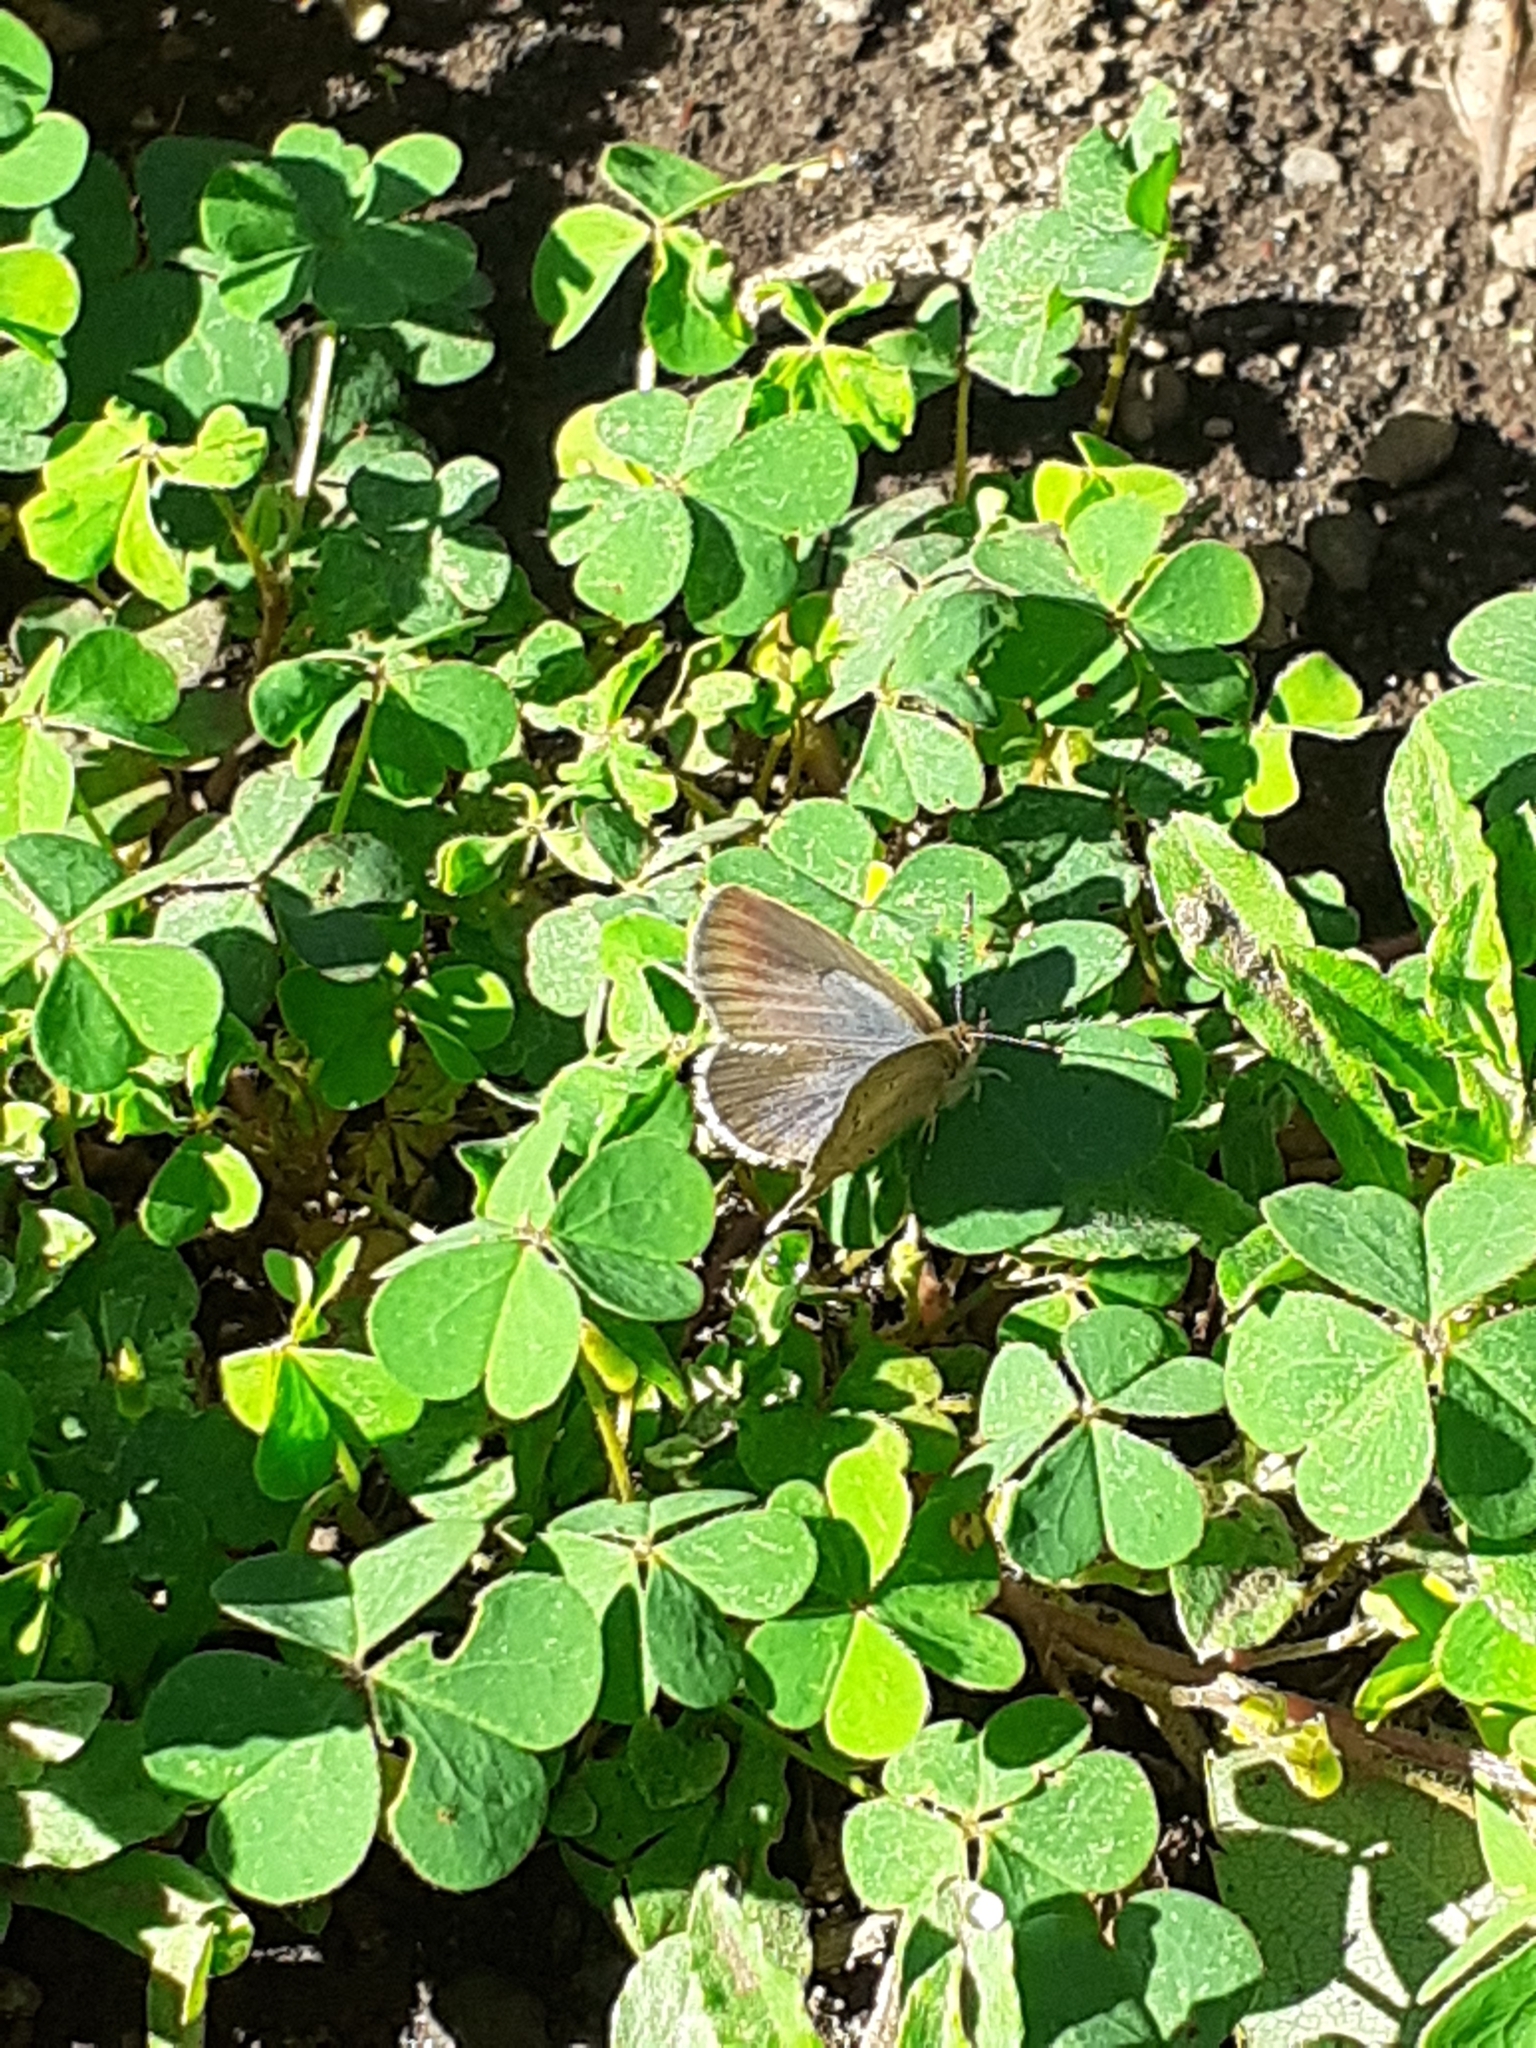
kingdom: Animalia
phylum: Arthropoda
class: Insecta
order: Lepidoptera
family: Lycaenidae
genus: Zizeeria
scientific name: Zizeeria knysna
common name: African grass blue
